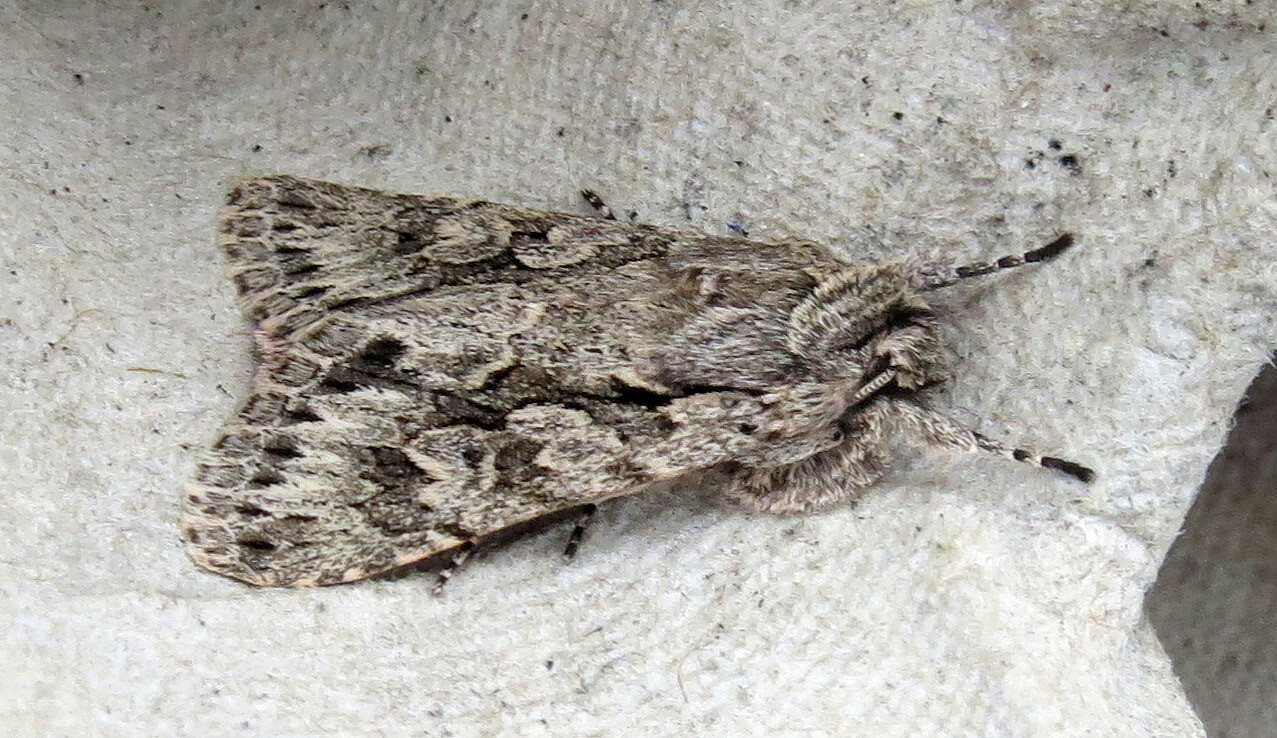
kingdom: Animalia
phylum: Arthropoda
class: Insecta
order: Lepidoptera
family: Noctuidae
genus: Xylocampa
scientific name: Xylocampa areola
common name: Early grey
